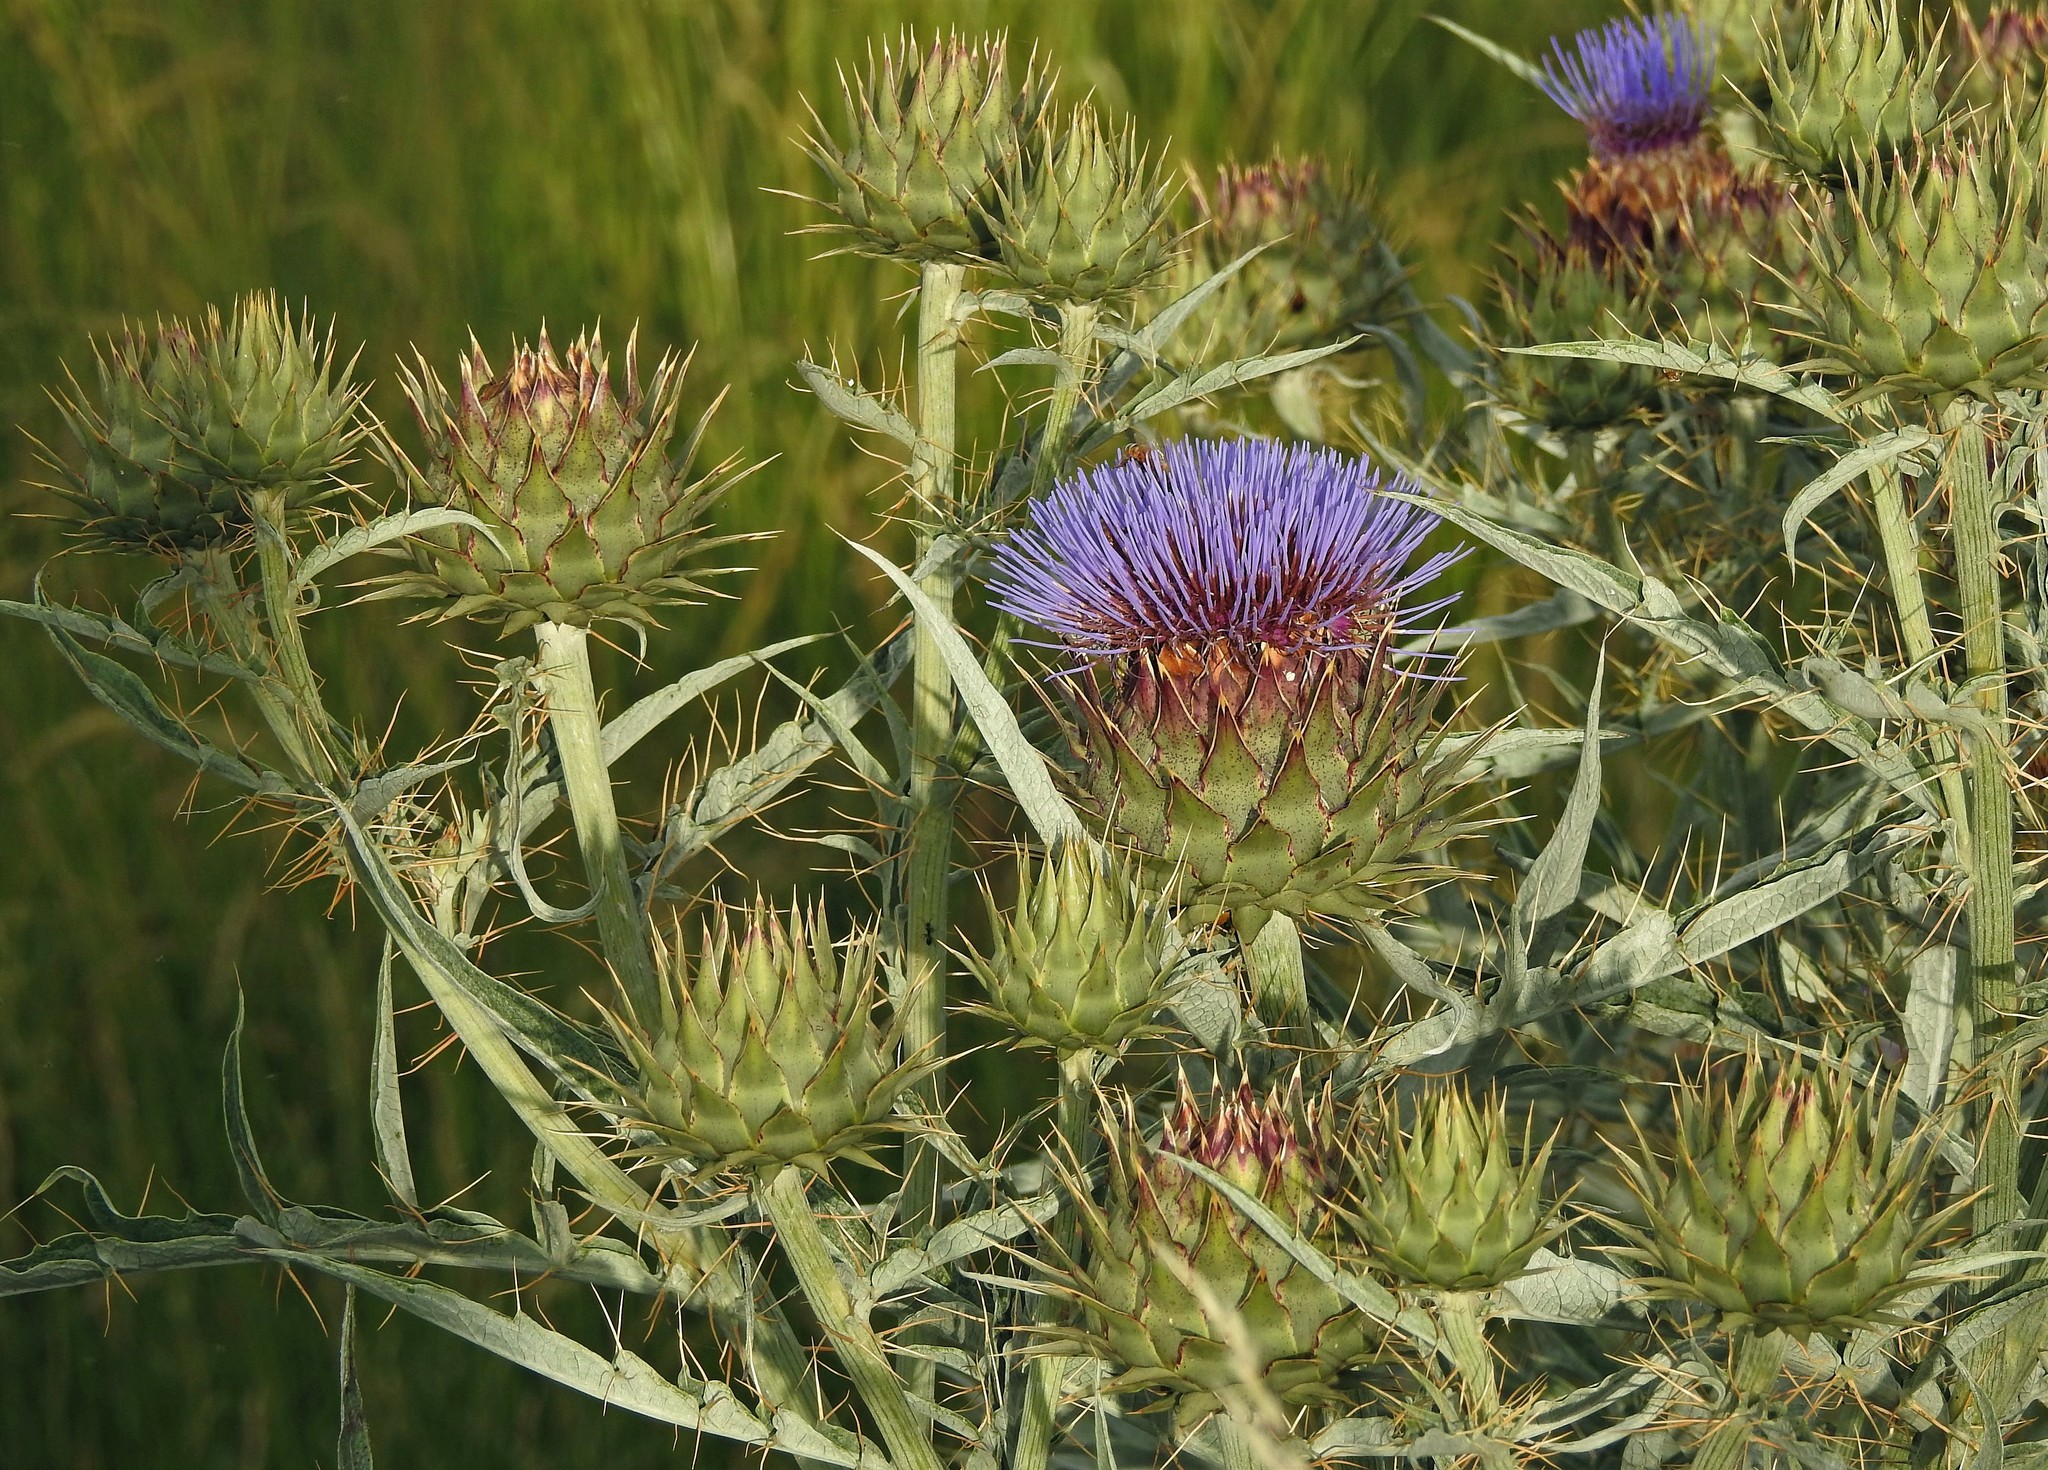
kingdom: Plantae
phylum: Tracheophyta
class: Magnoliopsida
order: Asterales
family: Asteraceae
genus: Cynara
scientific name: Cynara cardunculus
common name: Globe artichoke
